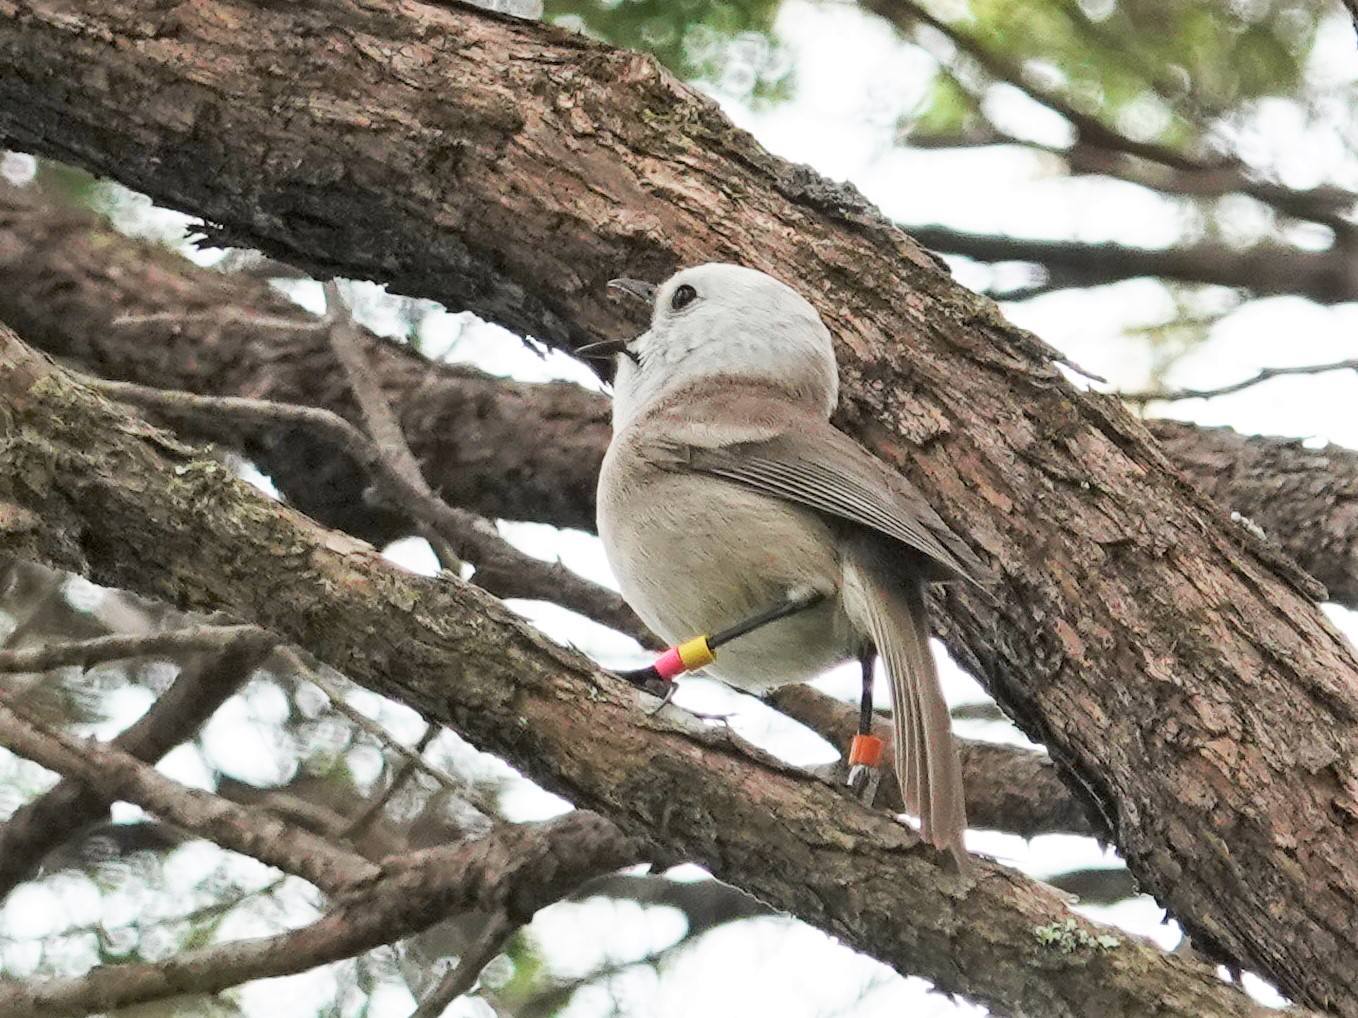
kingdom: Animalia
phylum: Chordata
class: Aves
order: Passeriformes
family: Acanthizidae
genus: Mohoua
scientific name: Mohoua albicilla
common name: Whitehead
